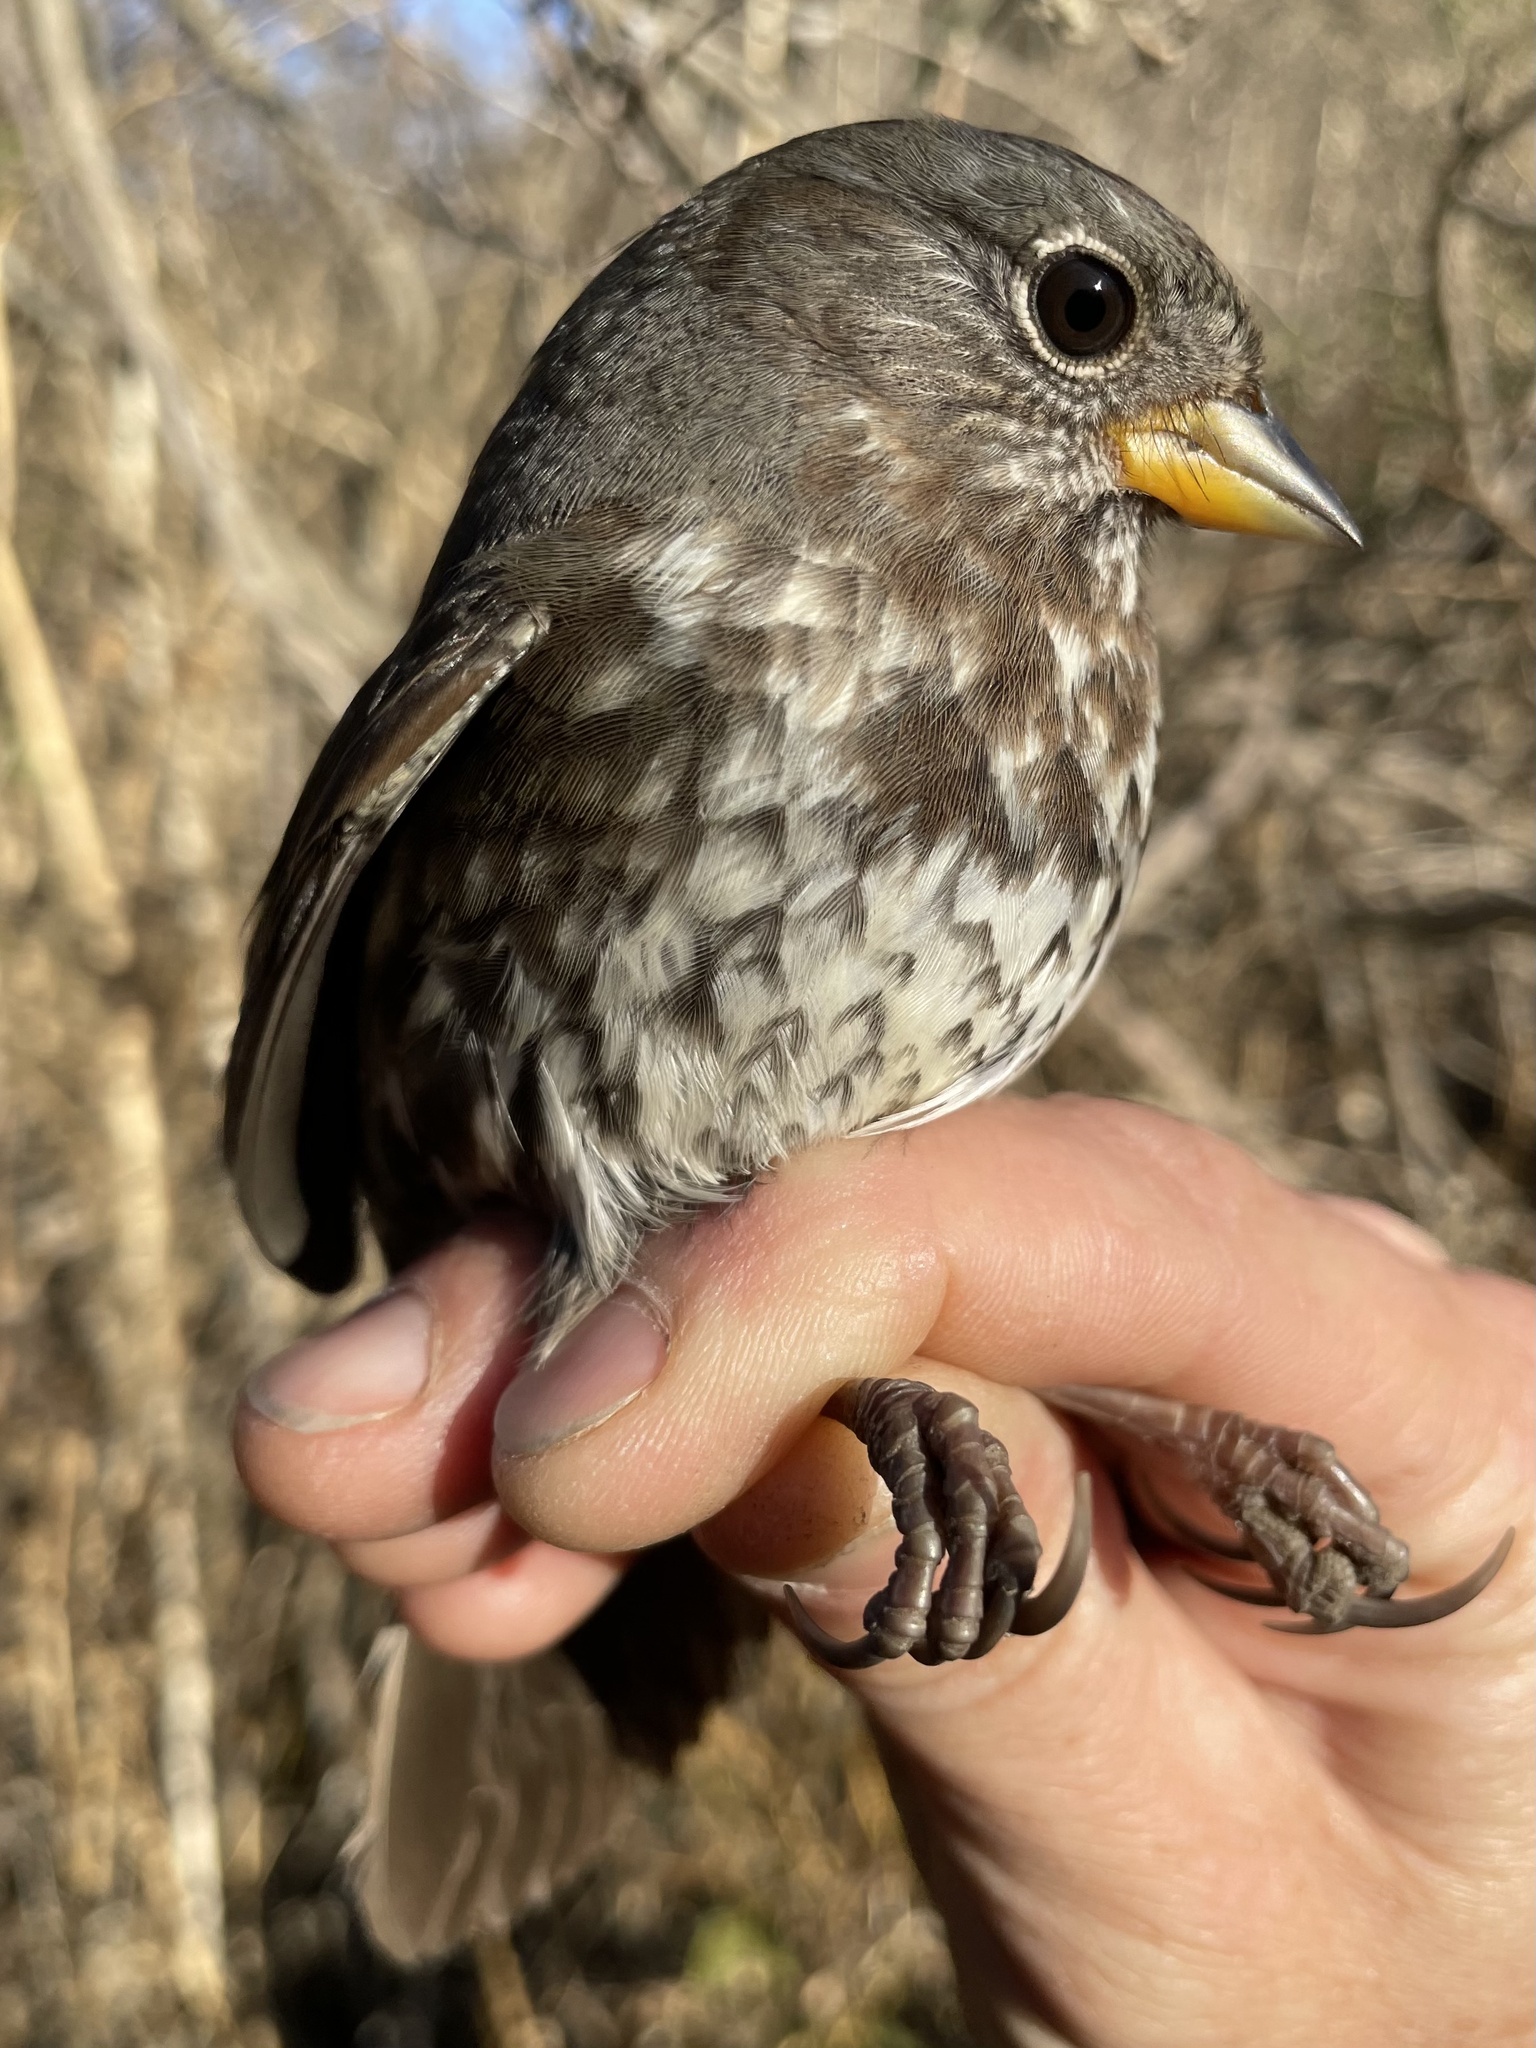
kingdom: Animalia
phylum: Chordata
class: Aves
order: Passeriformes
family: Passerellidae
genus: Passerella
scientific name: Passerella iliaca
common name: Fox sparrow
